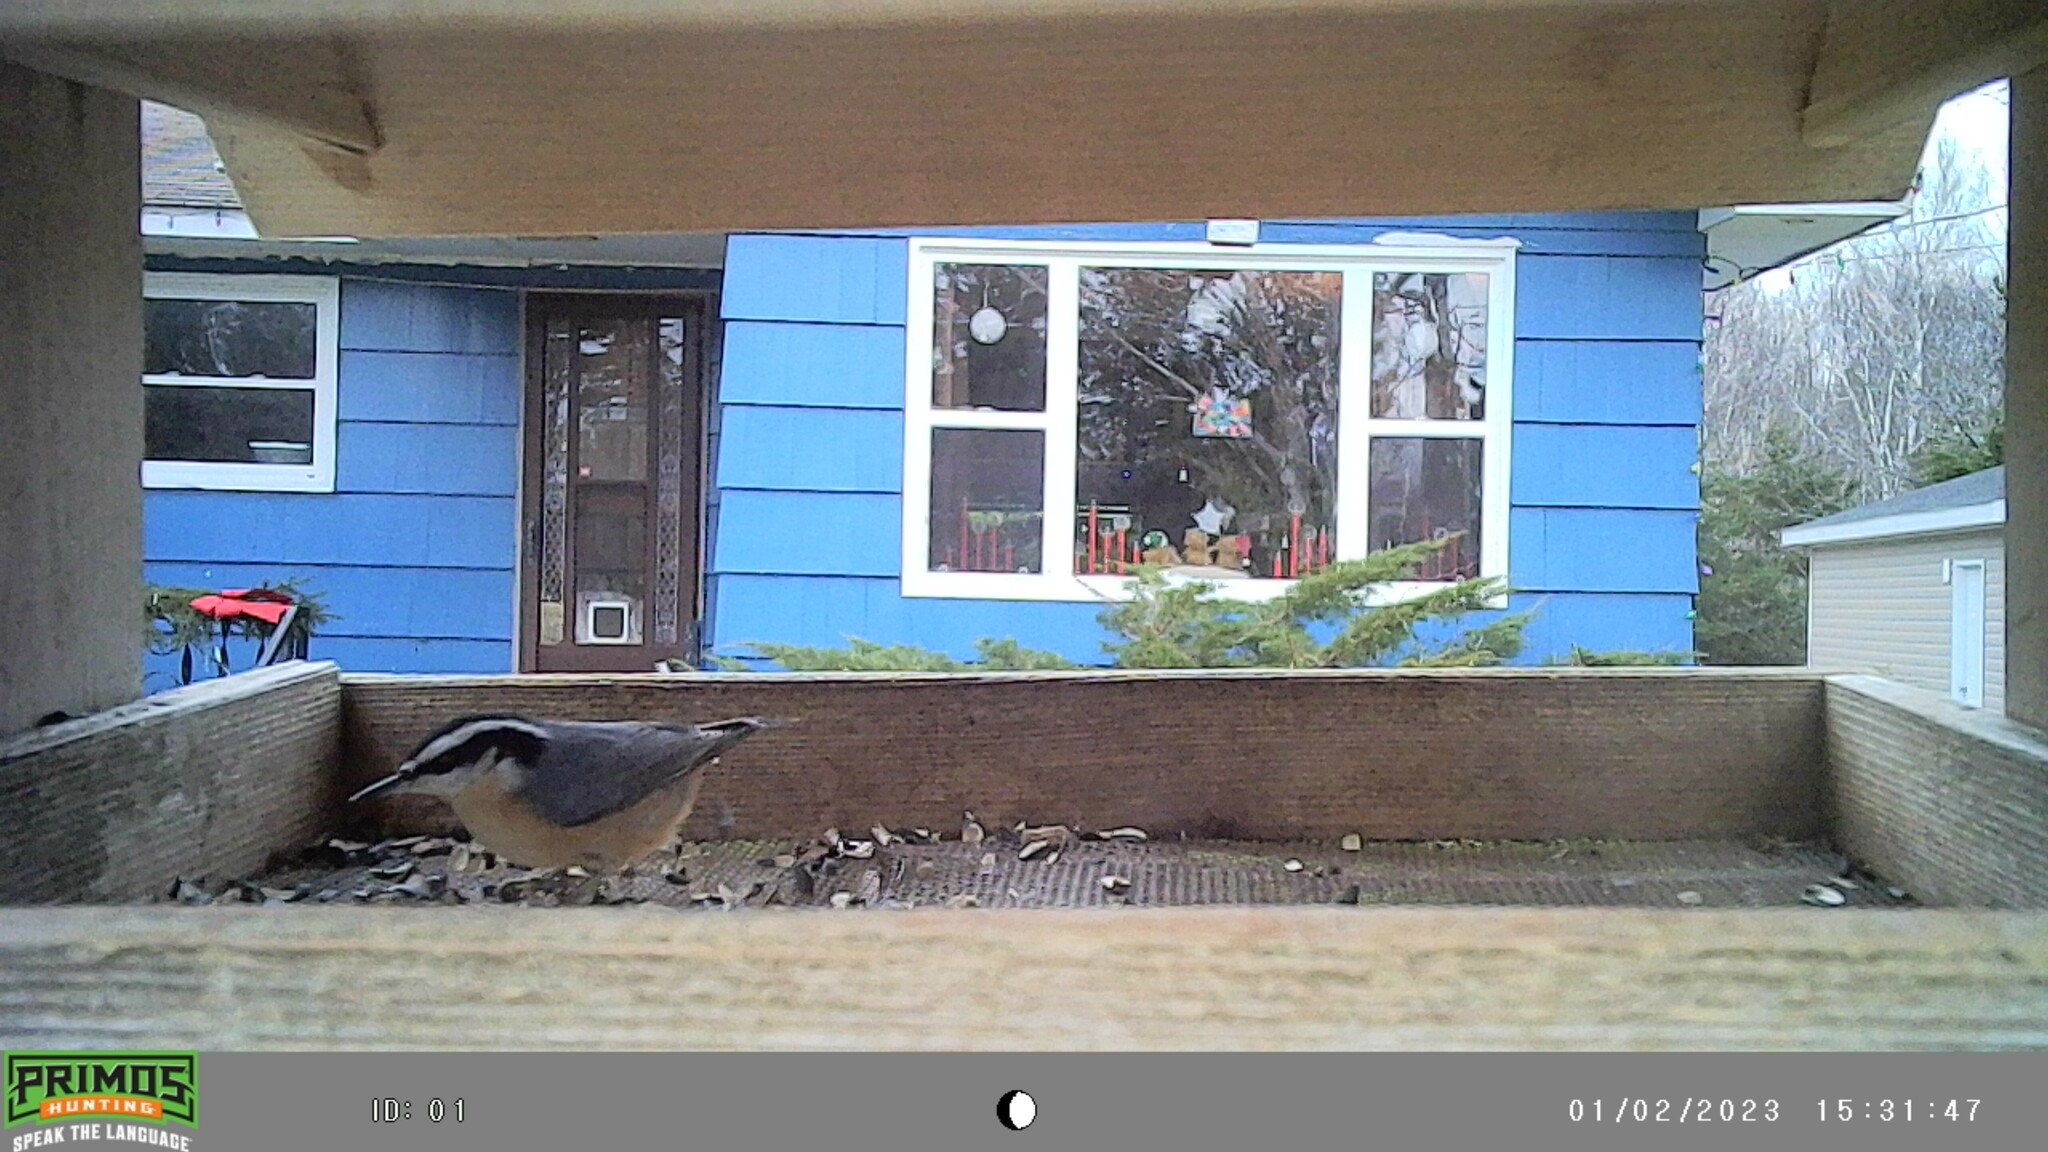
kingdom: Animalia
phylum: Chordata
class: Aves
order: Passeriformes
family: Sittidae
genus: Sitta
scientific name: Sitta canadensis
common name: Red-breasted nuthatch
